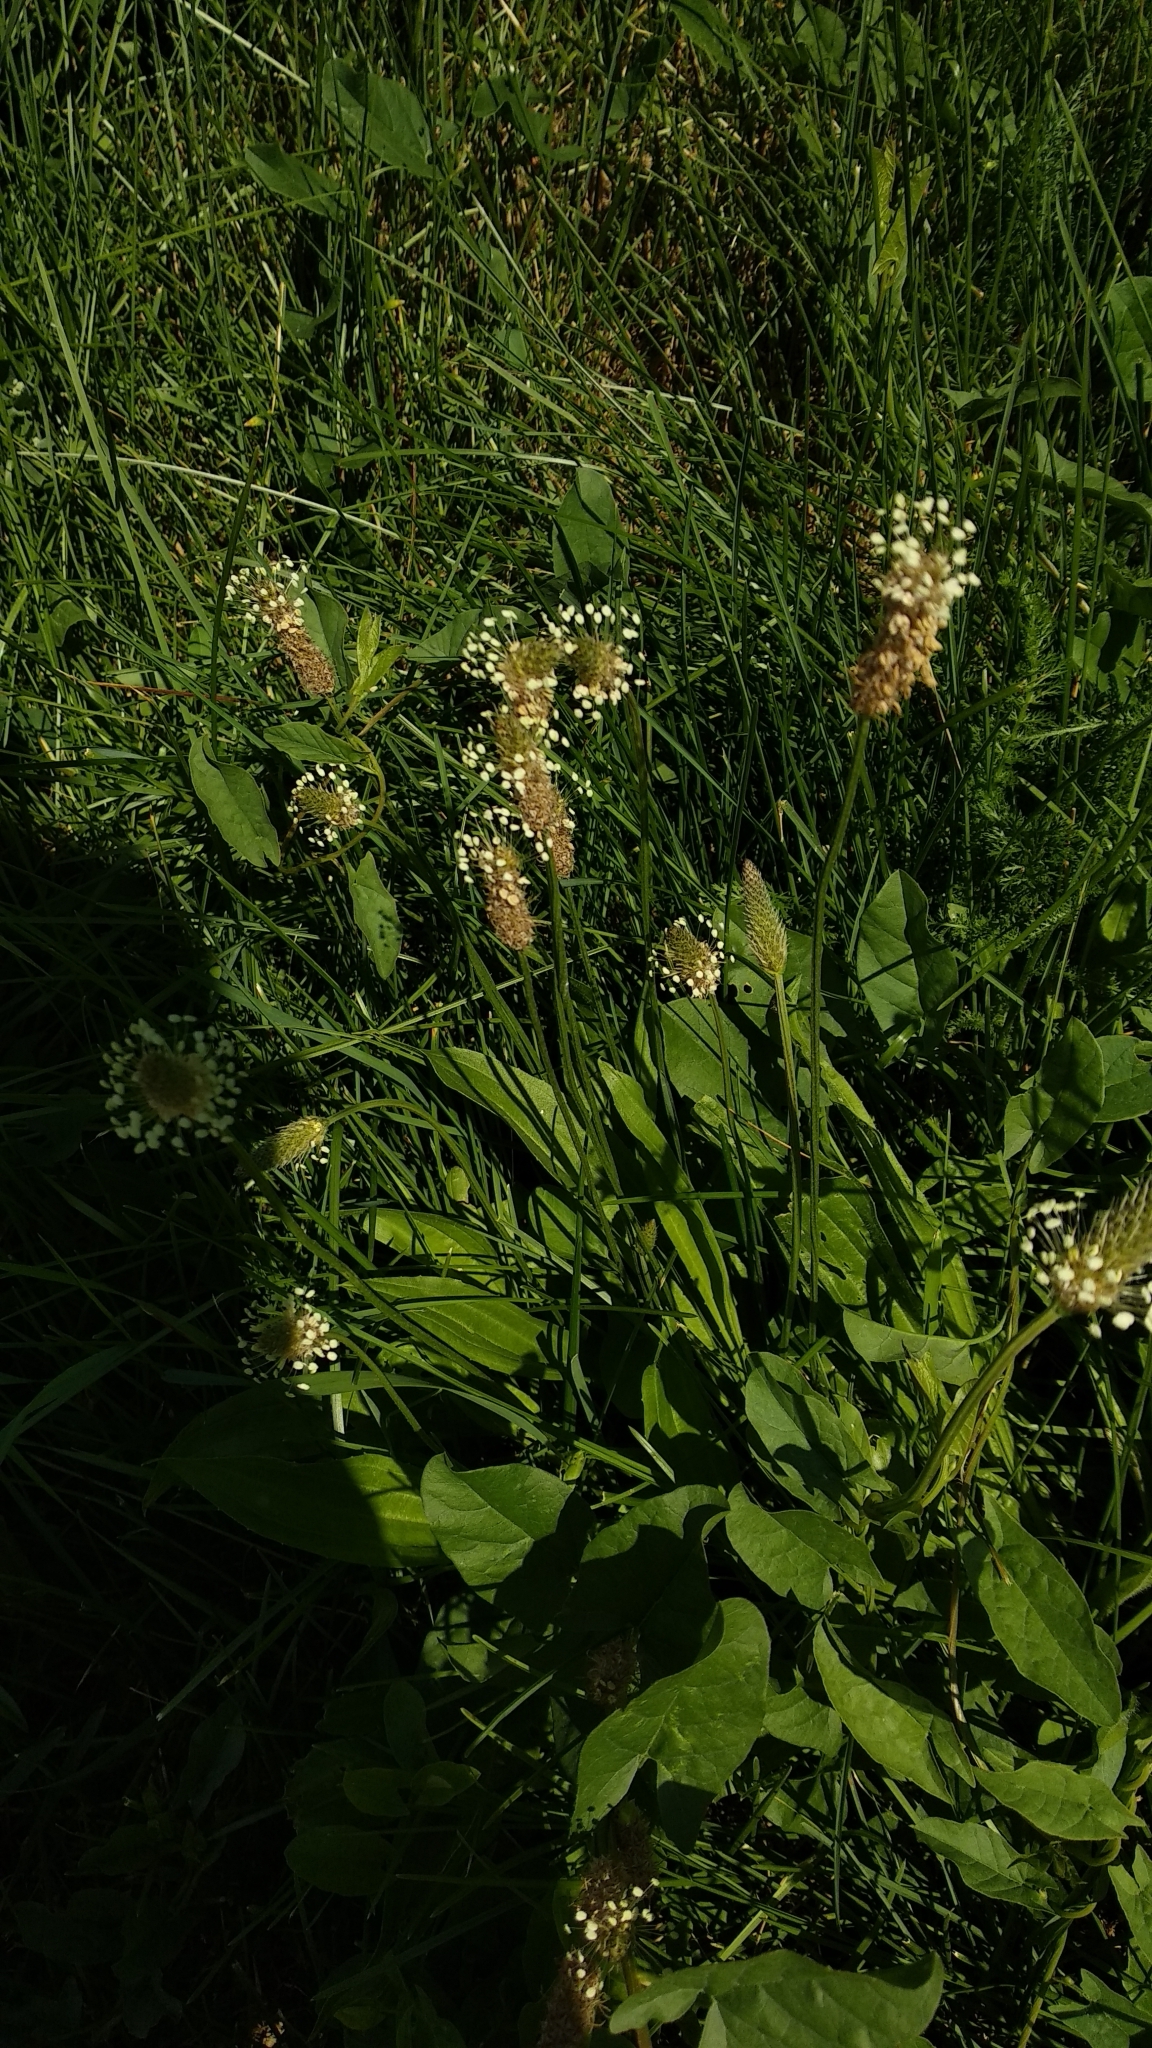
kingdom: Plantae
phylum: Tracheophyta
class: Magnoliopsida
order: Lamiales
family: Plantaginaceae
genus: Plantago
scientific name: Plantago lanceolata
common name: Ribwort plantain
